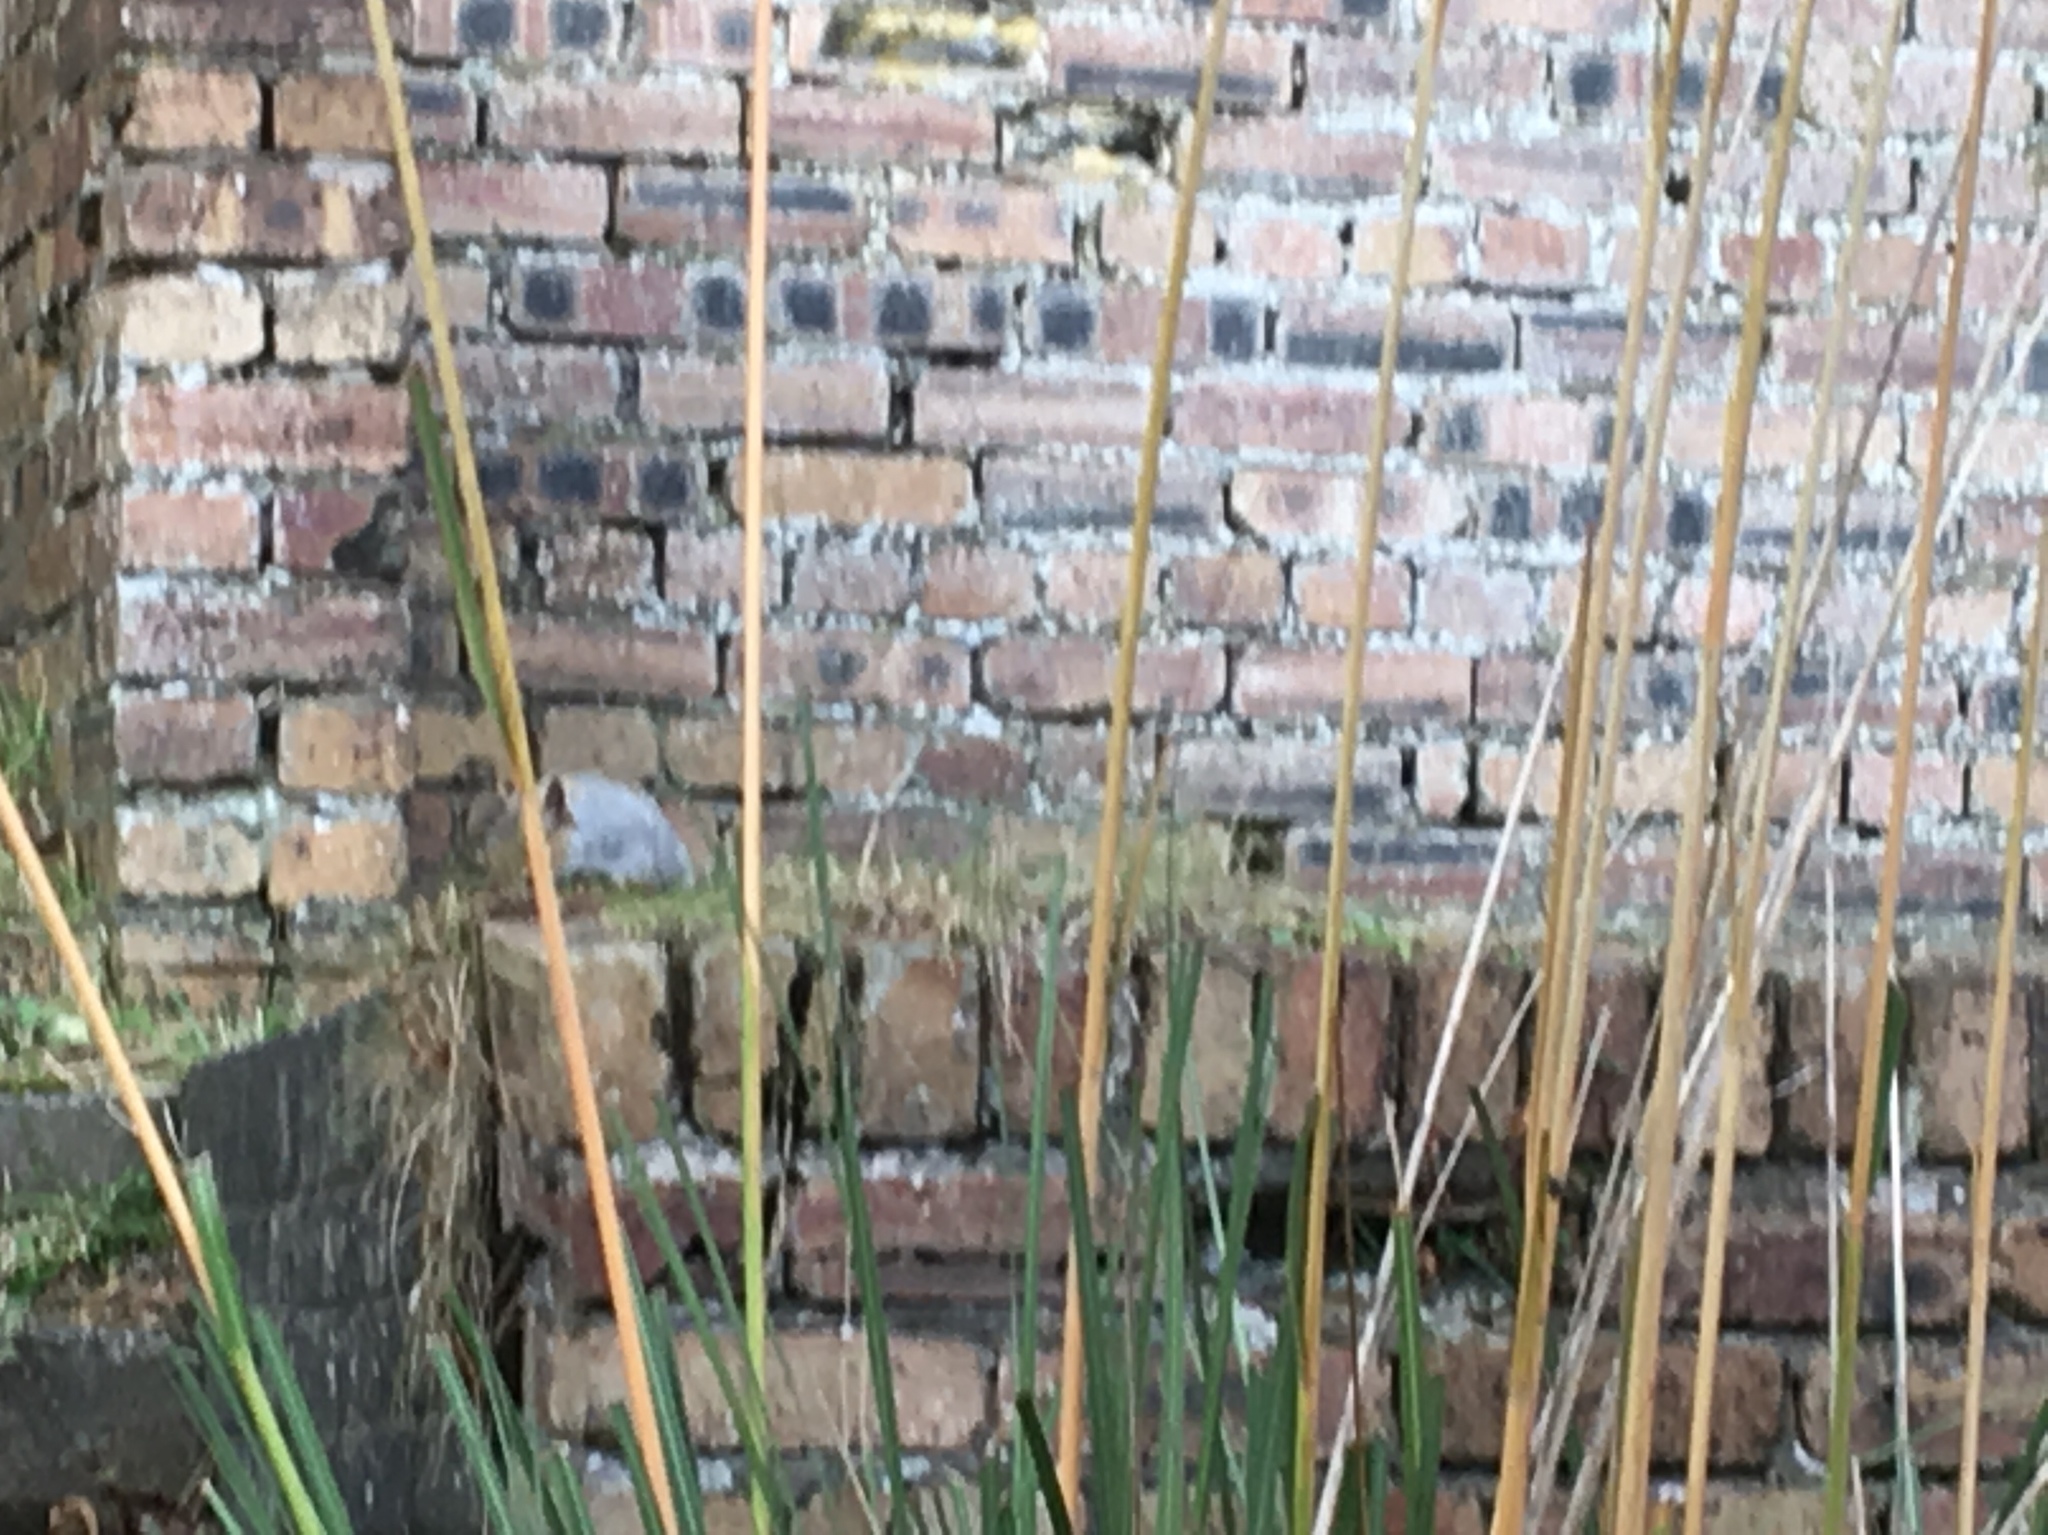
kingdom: Animalia
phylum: Chordata
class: Mammalia
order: Rodentia
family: Sciuridae
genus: Sciurus
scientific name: Sciurus carolinensis
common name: Eastern gray squirrel
